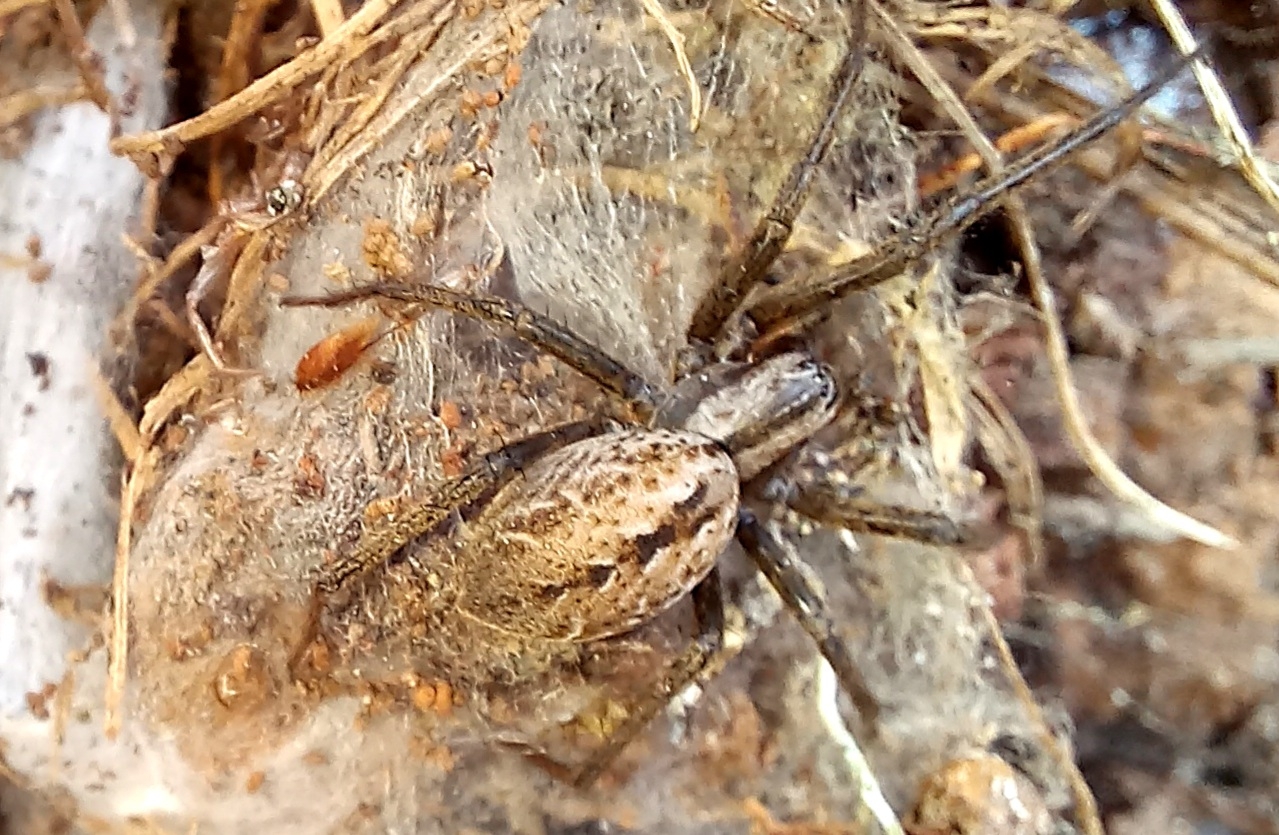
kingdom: Animalia
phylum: Arthropoda
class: Arachnida
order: Araneae
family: Desidae
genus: Cambridgea
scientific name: Cambridgea
